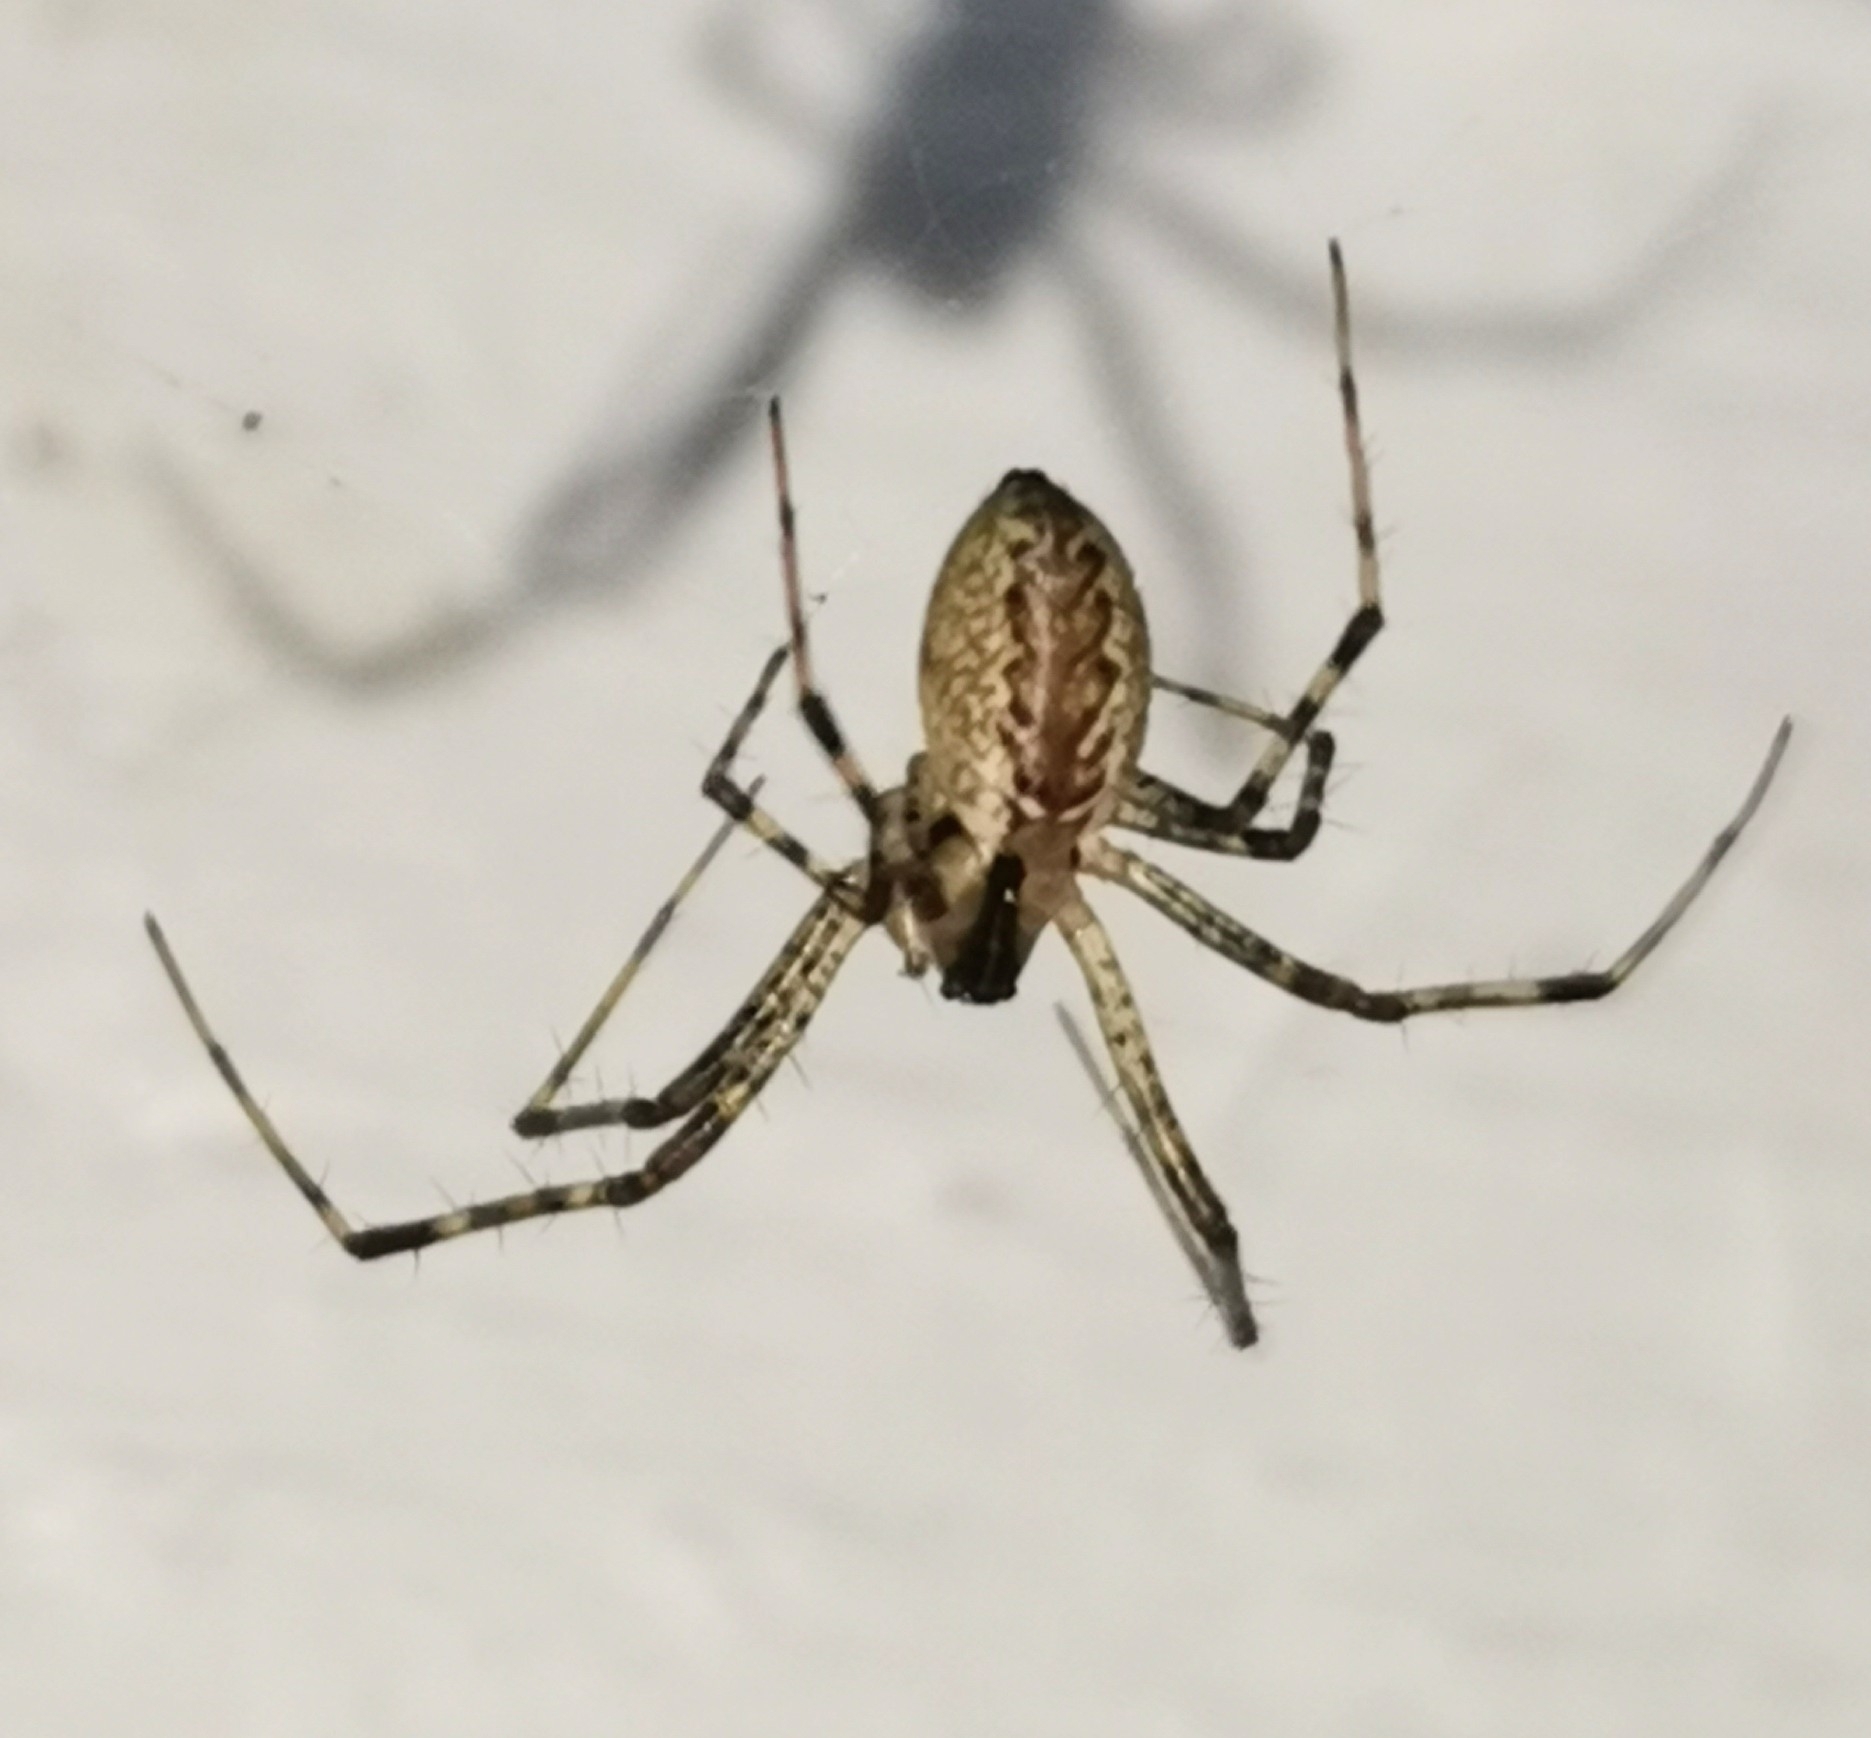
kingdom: Animalia
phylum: Arthropoda
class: Arachnida
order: Araneae
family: Linyphiidae
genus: Pityohyphantes
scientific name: Pityohyphantes phrygianus
